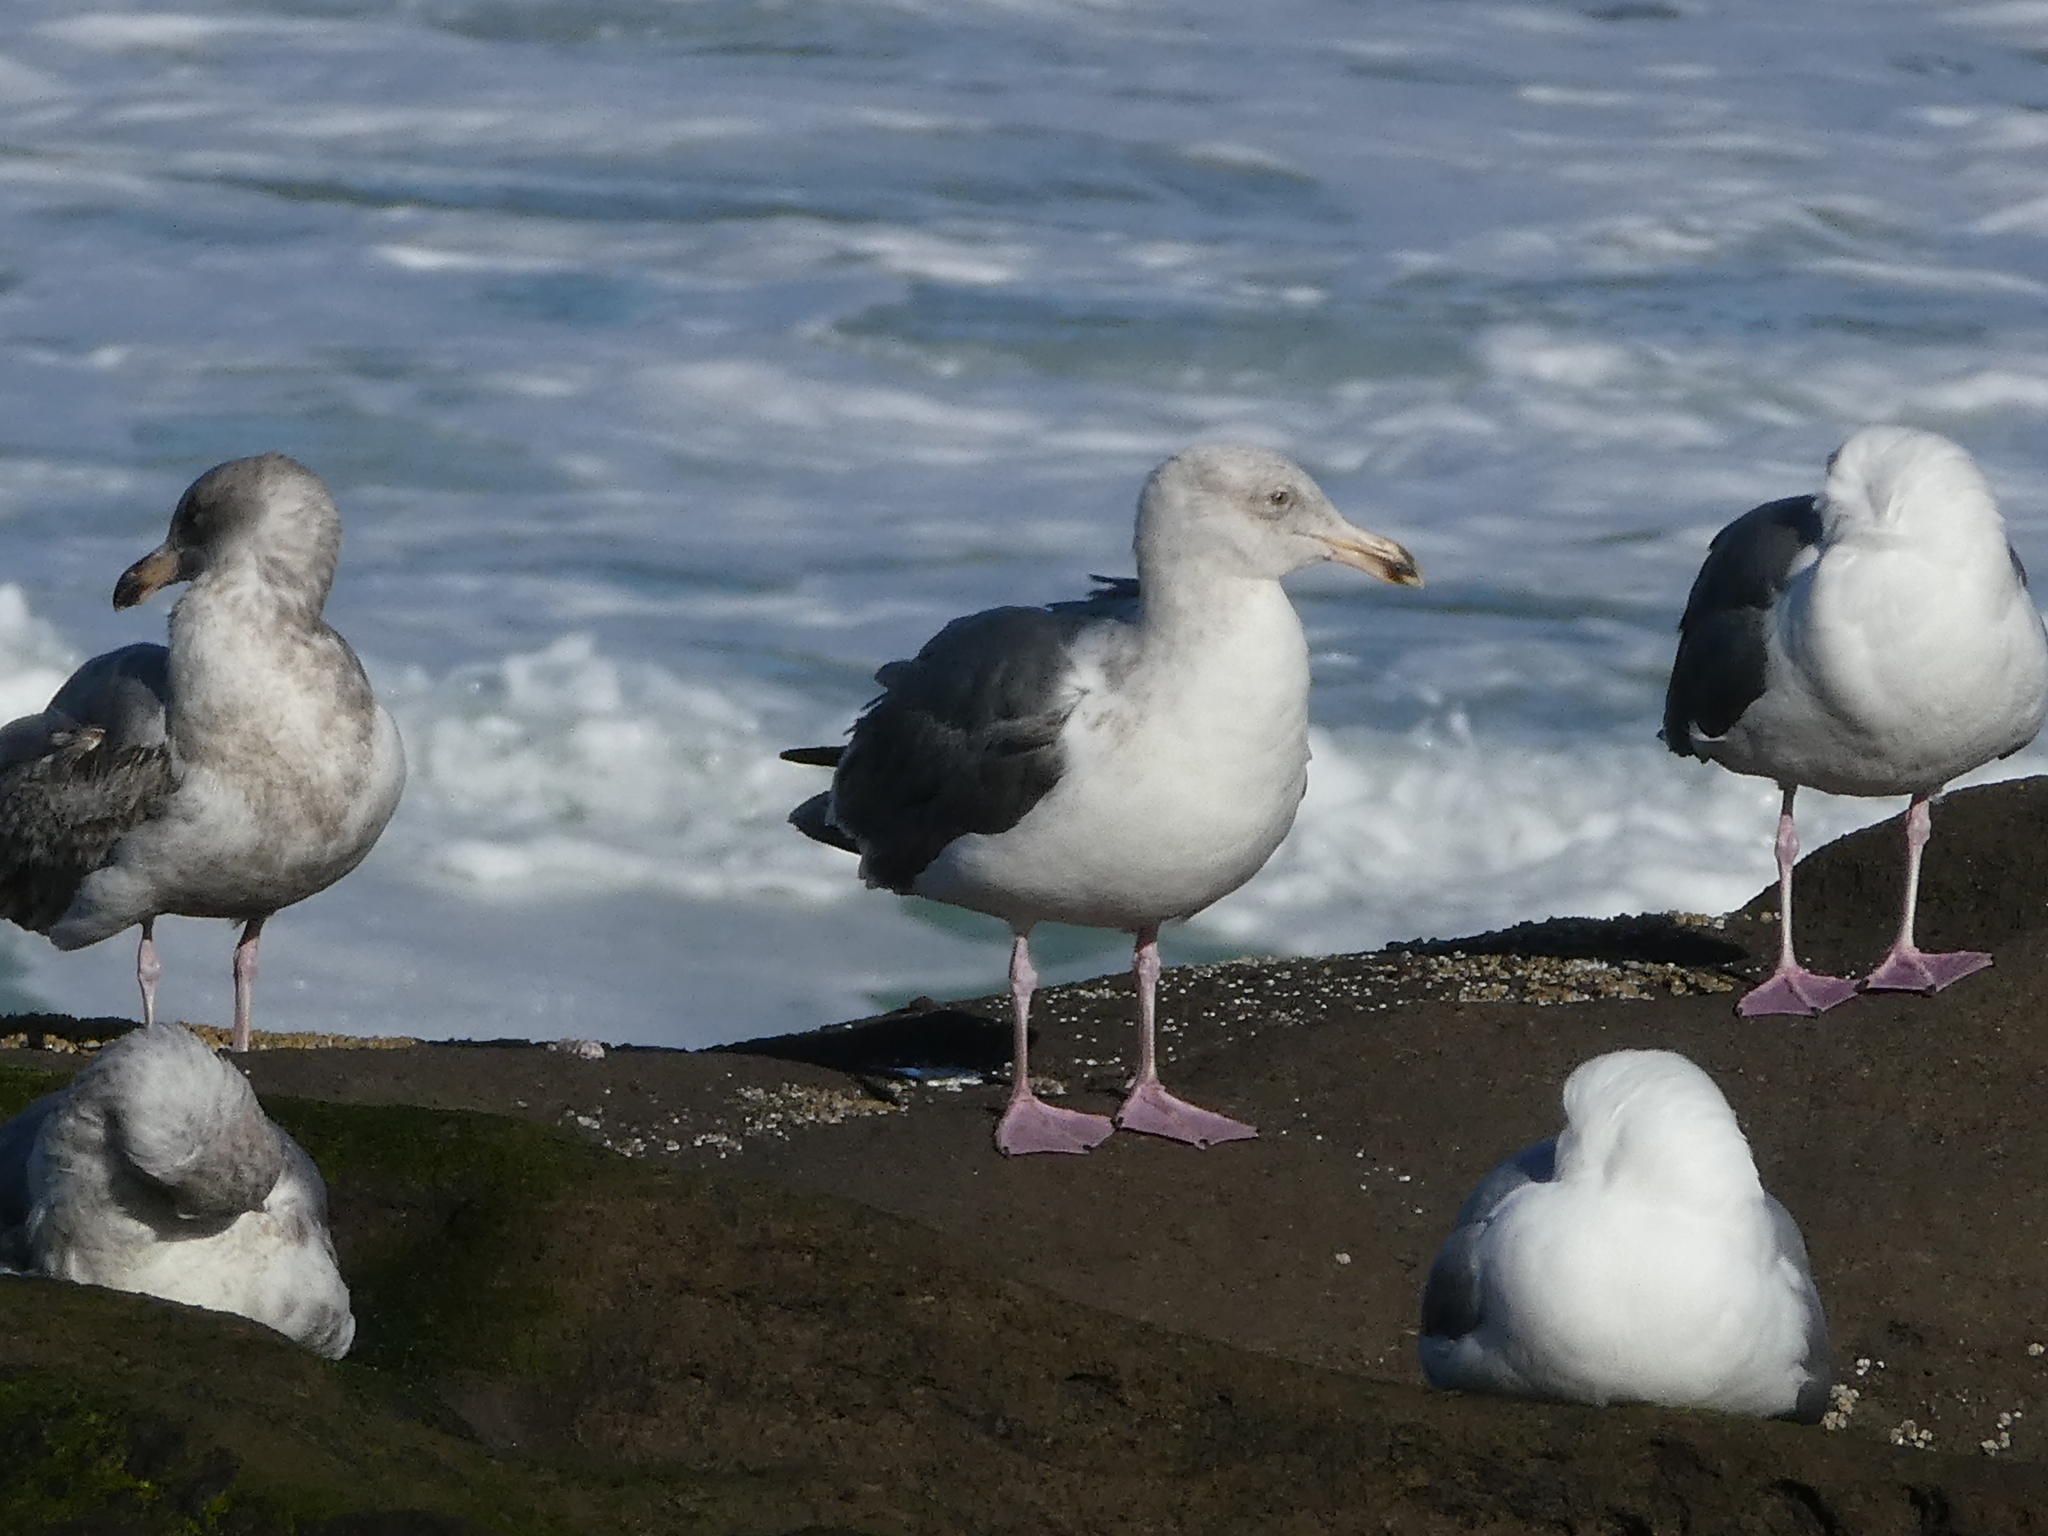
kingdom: Animalia
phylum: Chordata
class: Aves
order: Charadriiformes
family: Laridae
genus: Larus
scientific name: Larus occidentalis
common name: Western gull
